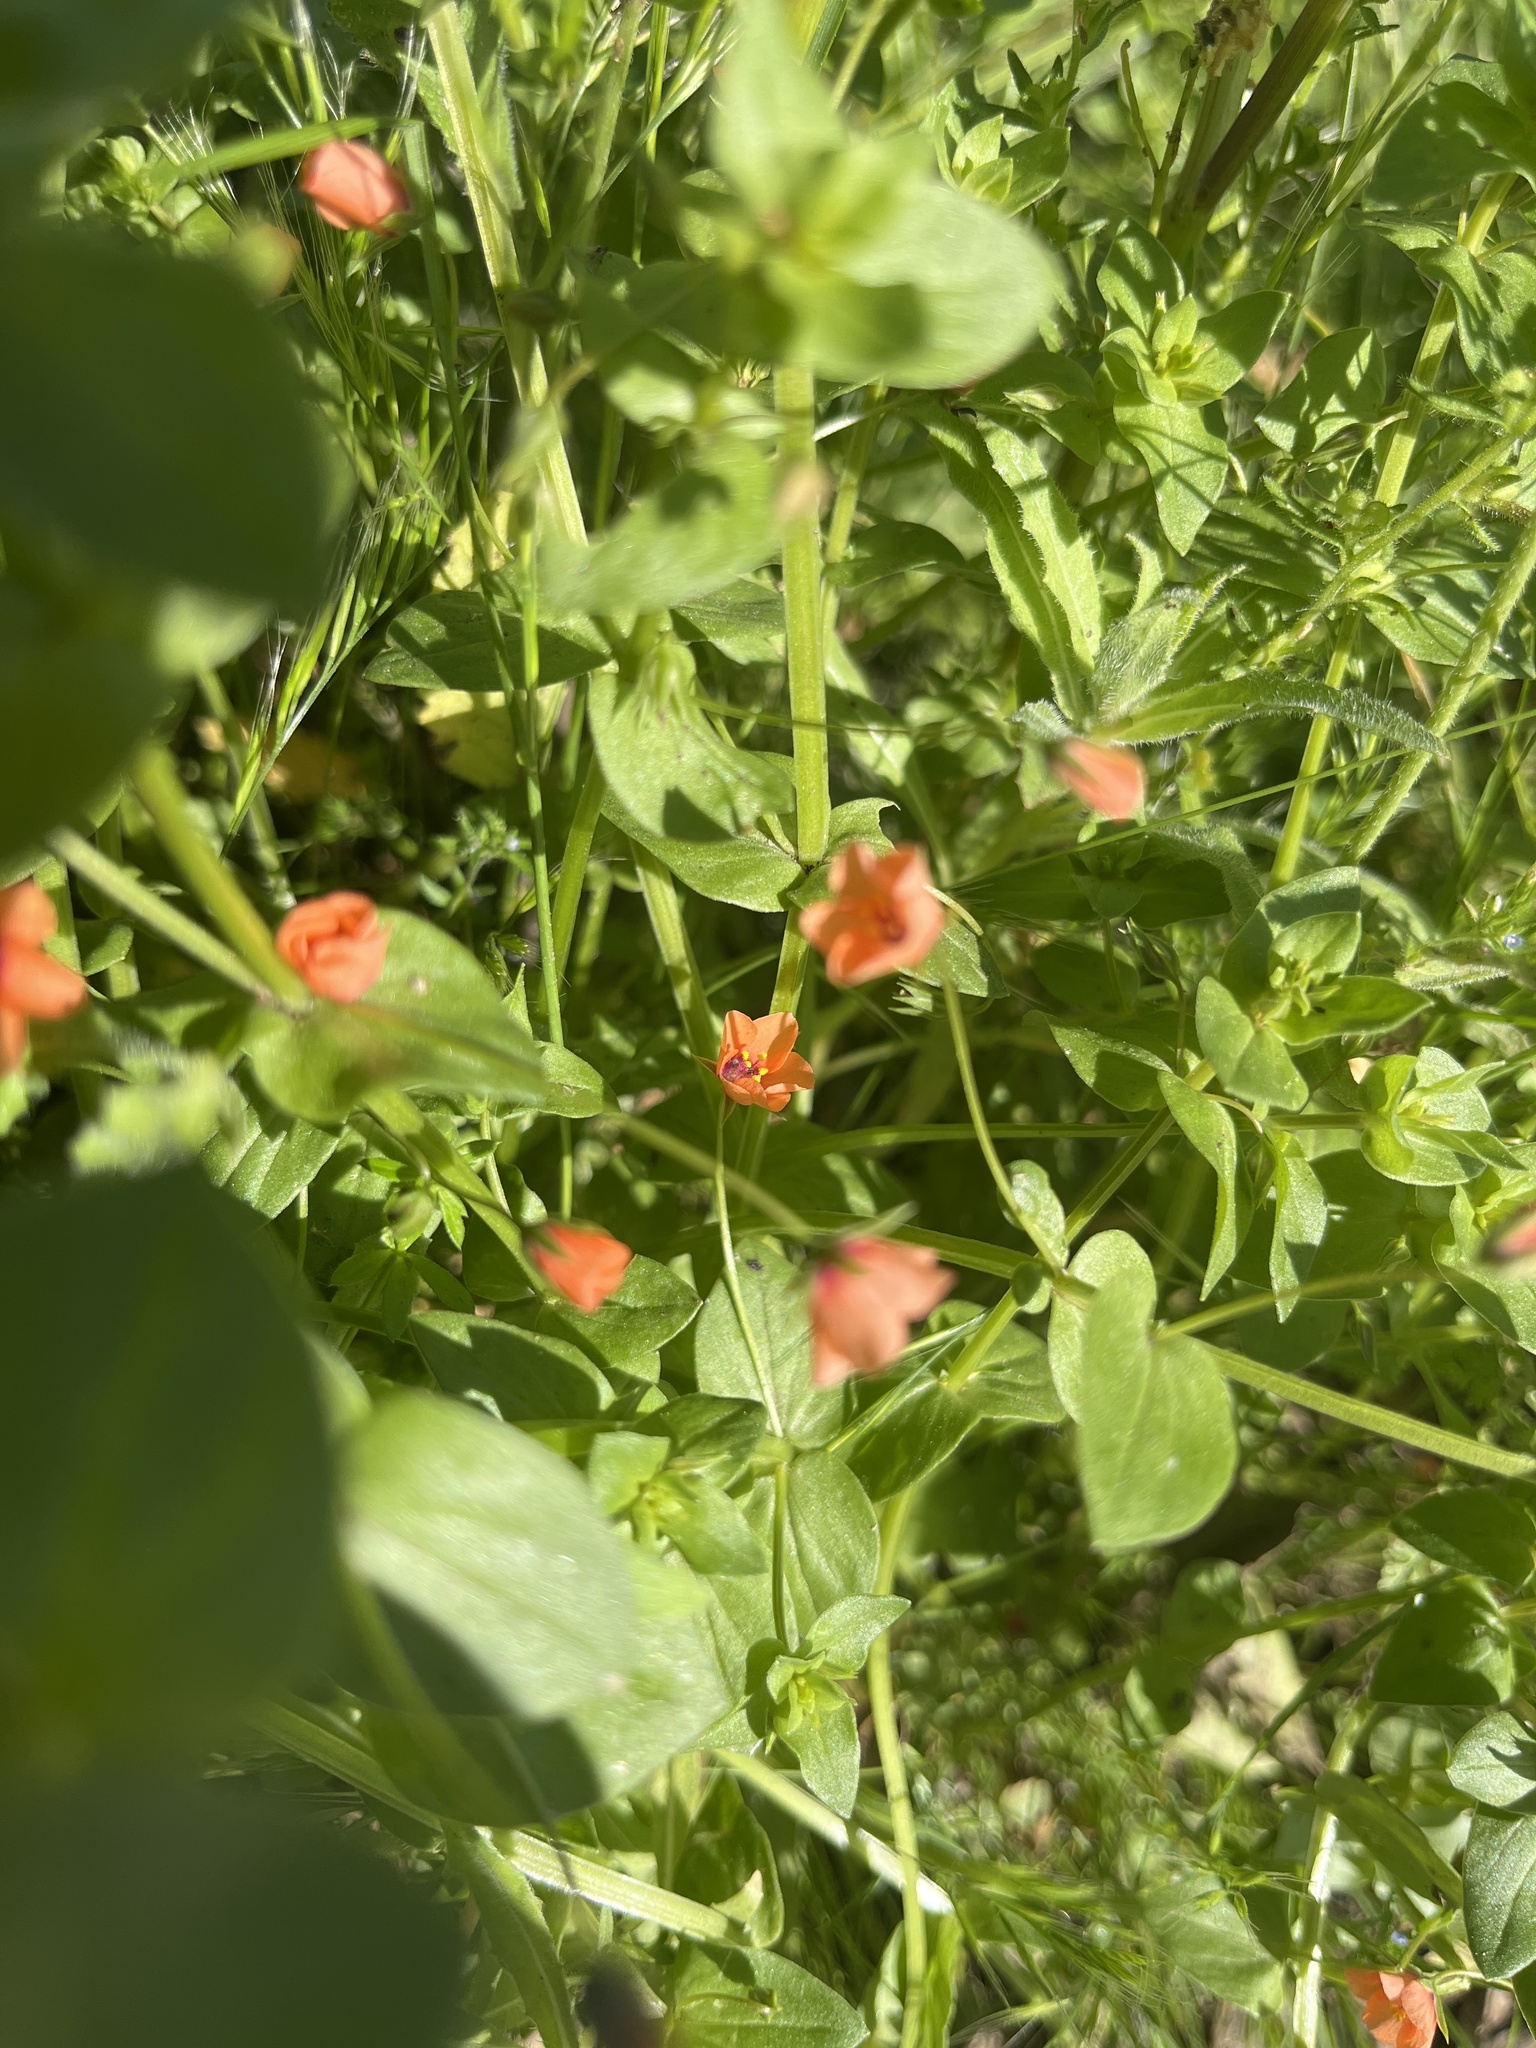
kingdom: Plantae
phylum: Tracheophyta
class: Magnoliopsida
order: Ericales
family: Primulaceae
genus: Lysimachia
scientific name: Lysimachia arvensis
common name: Scarlet pimpernel
